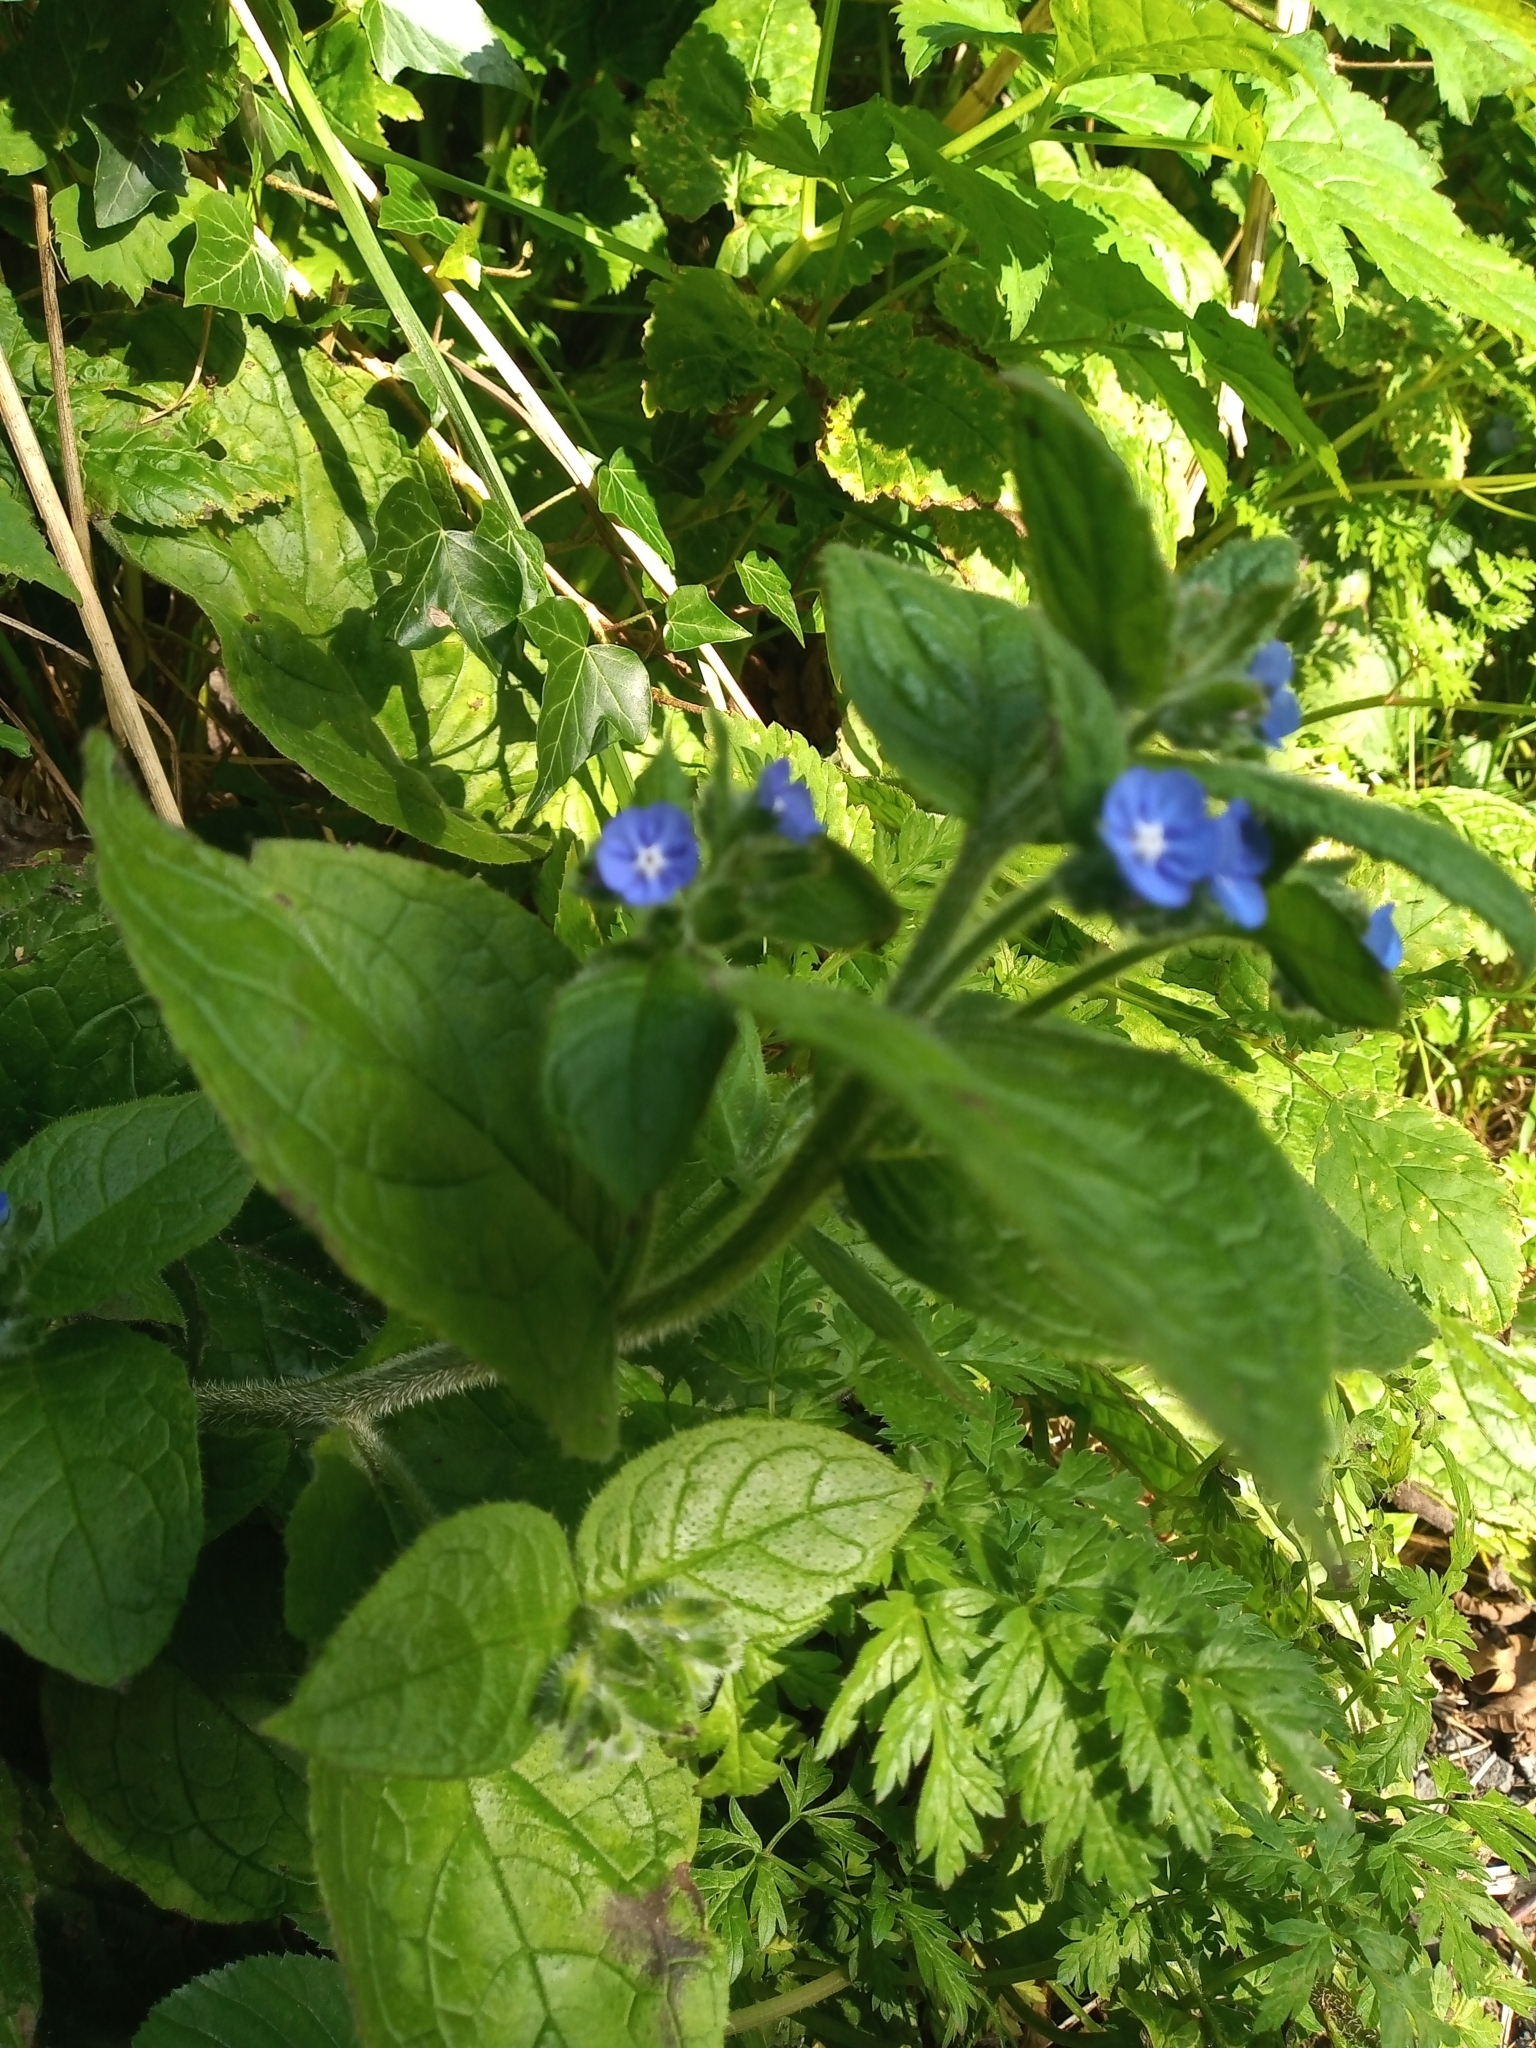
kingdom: Plantae
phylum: Tracheophyta
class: Magnoliopsida
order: Boraginales
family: Boraginaceae
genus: Pentaglottis
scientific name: Pentaglottis sempervirens
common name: Green alkanet
